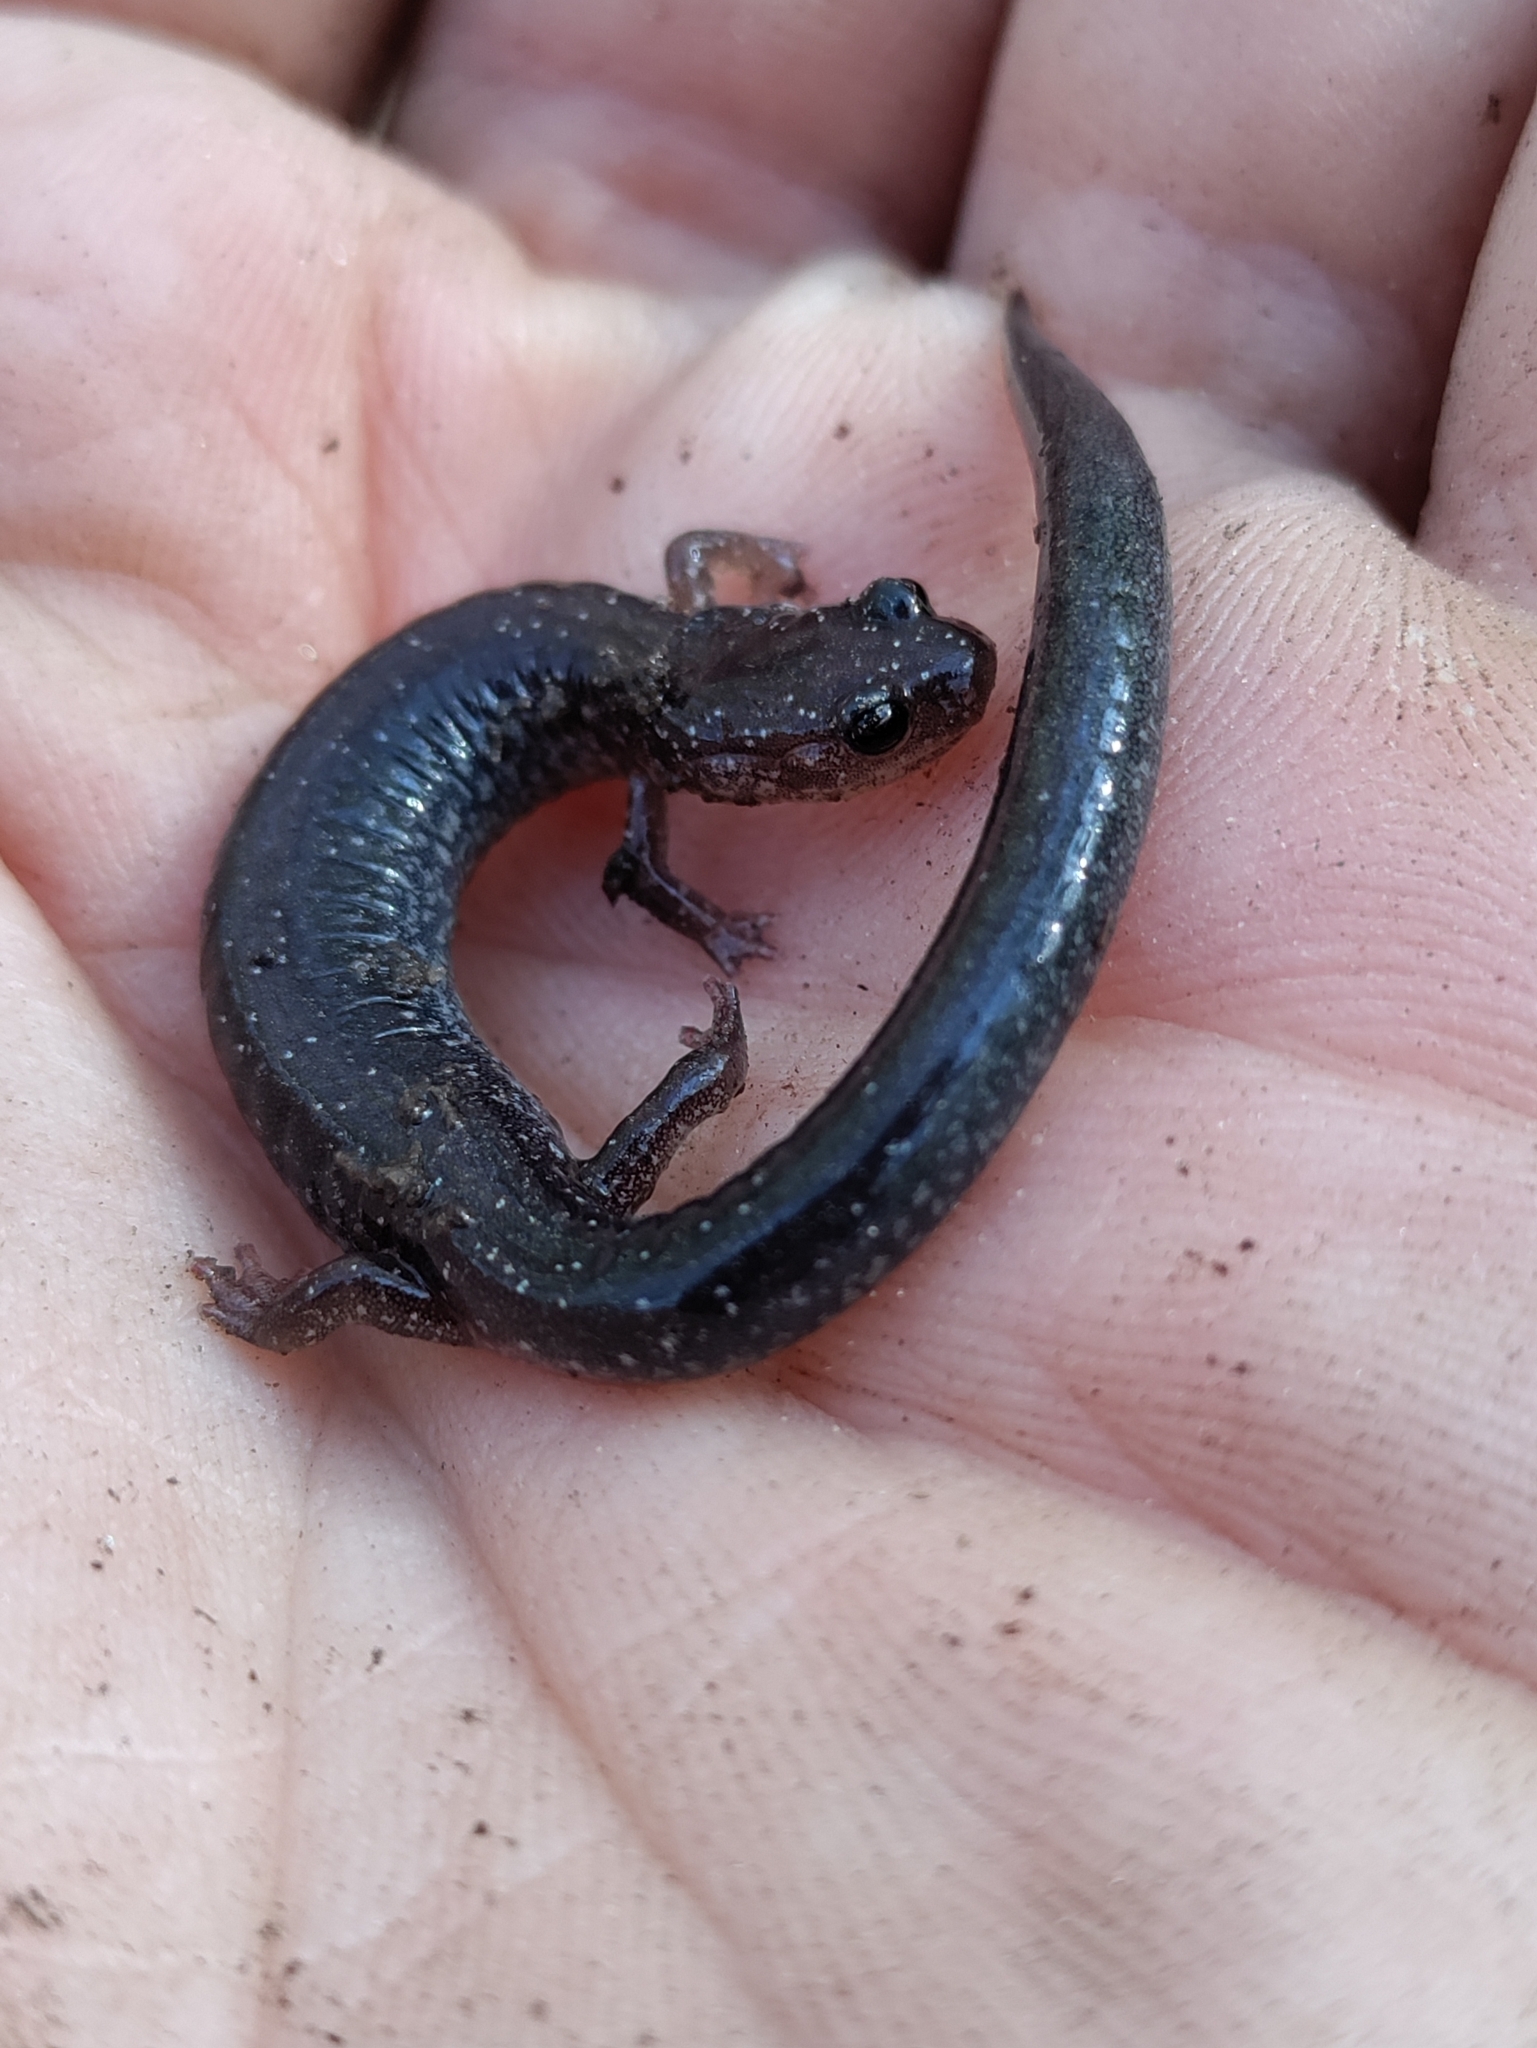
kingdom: Animalia
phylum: Chordata
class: Amphibia
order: Caudata
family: Plethodontidae
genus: Plethodon
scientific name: Plethodon cinereus
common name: Redback salamander
